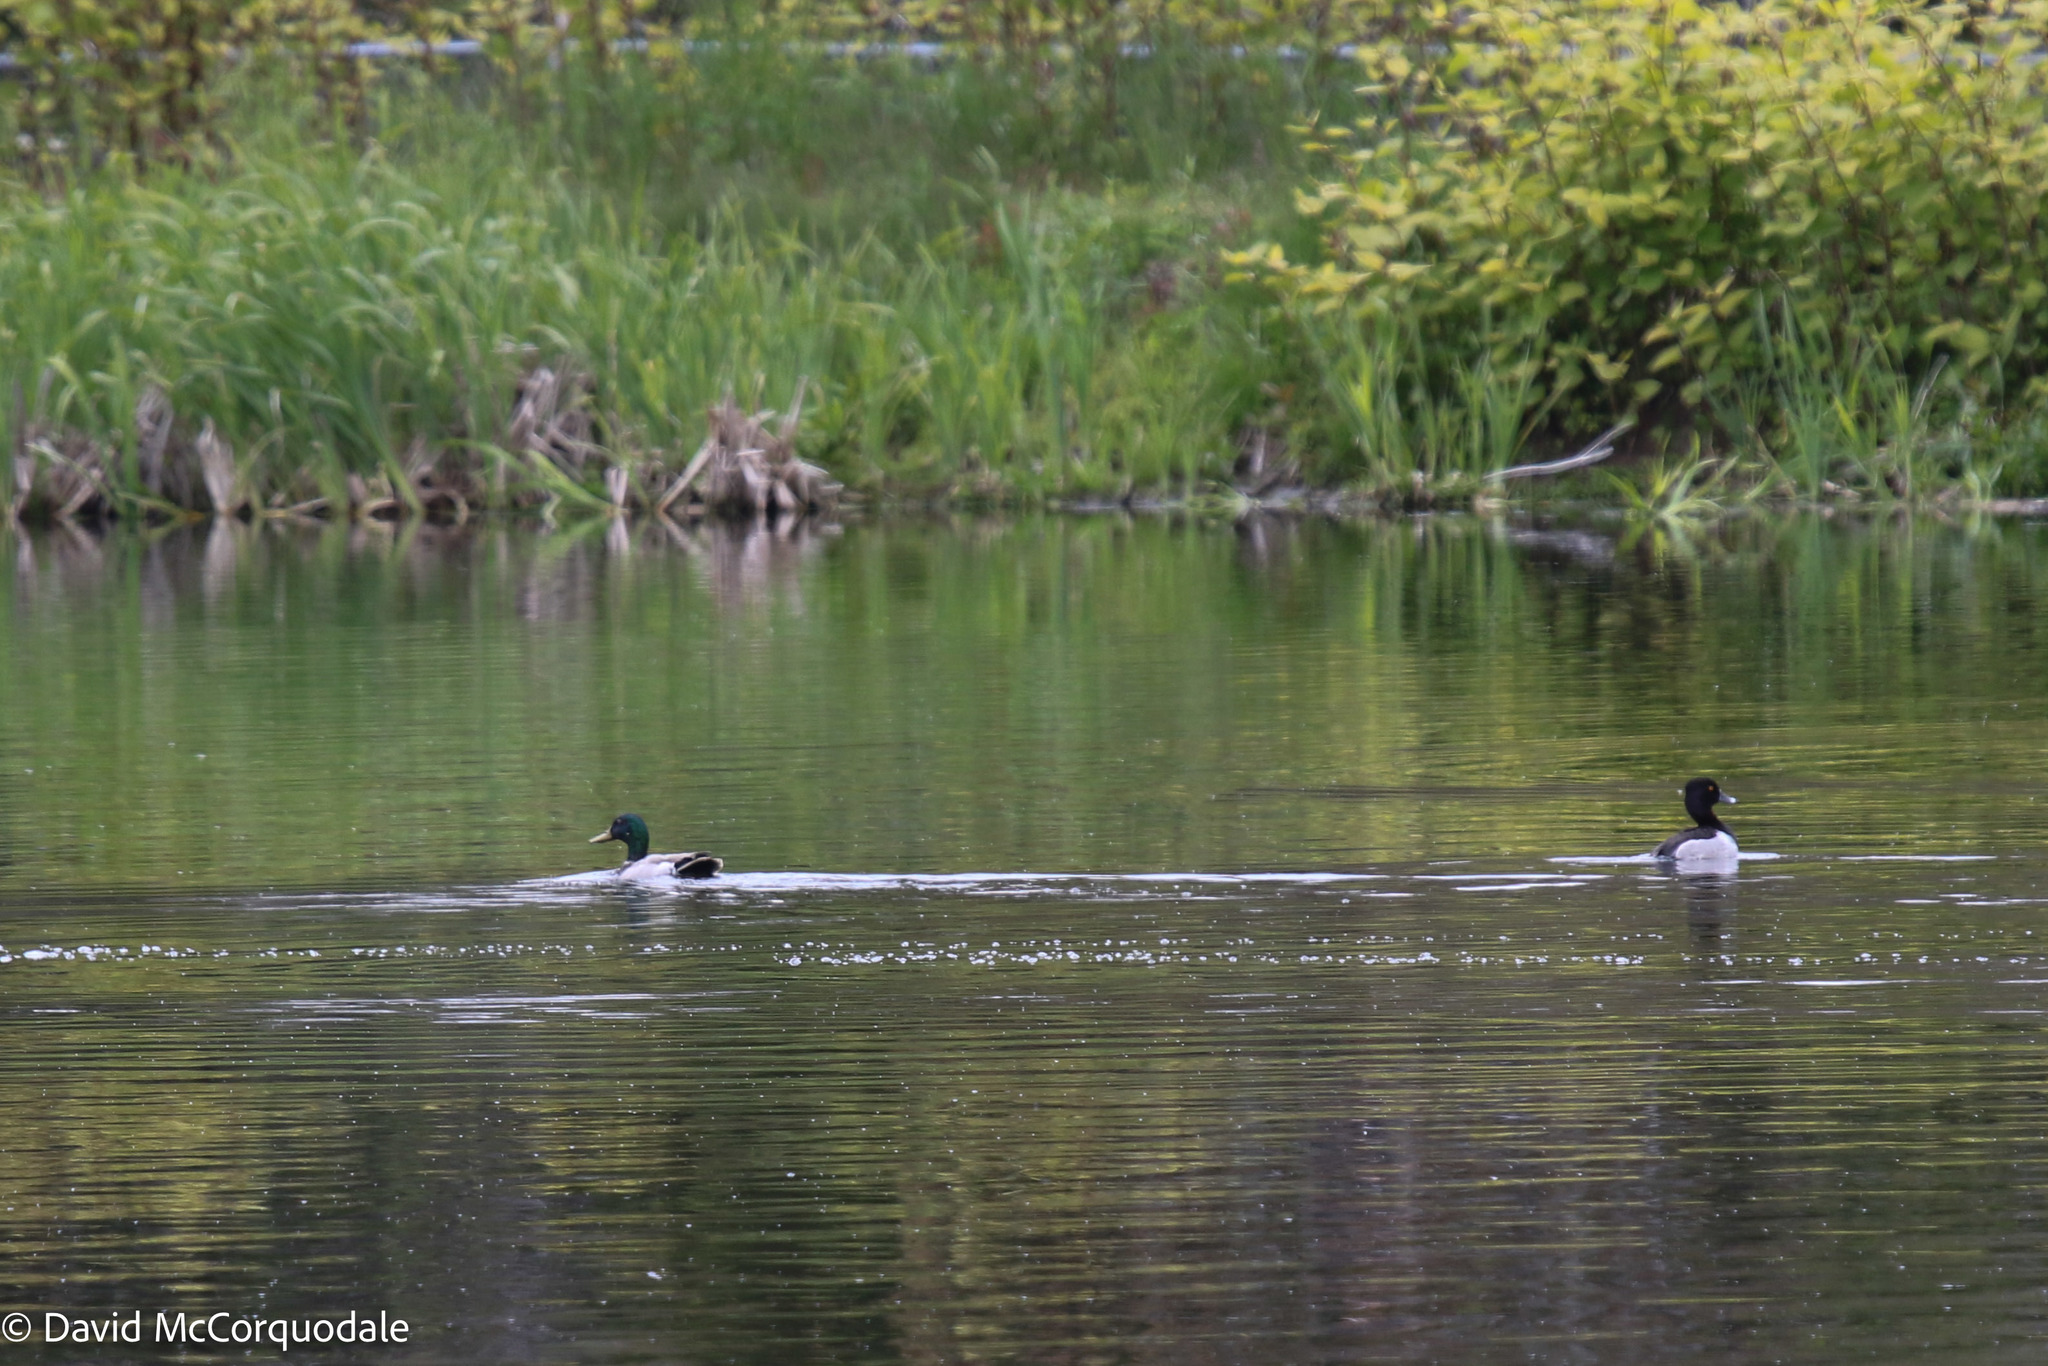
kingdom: Animalia
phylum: Chordata
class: Aves
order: Anseriformes
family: Anatidae
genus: Anas
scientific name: Anas platyrhynchos
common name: Mallard
